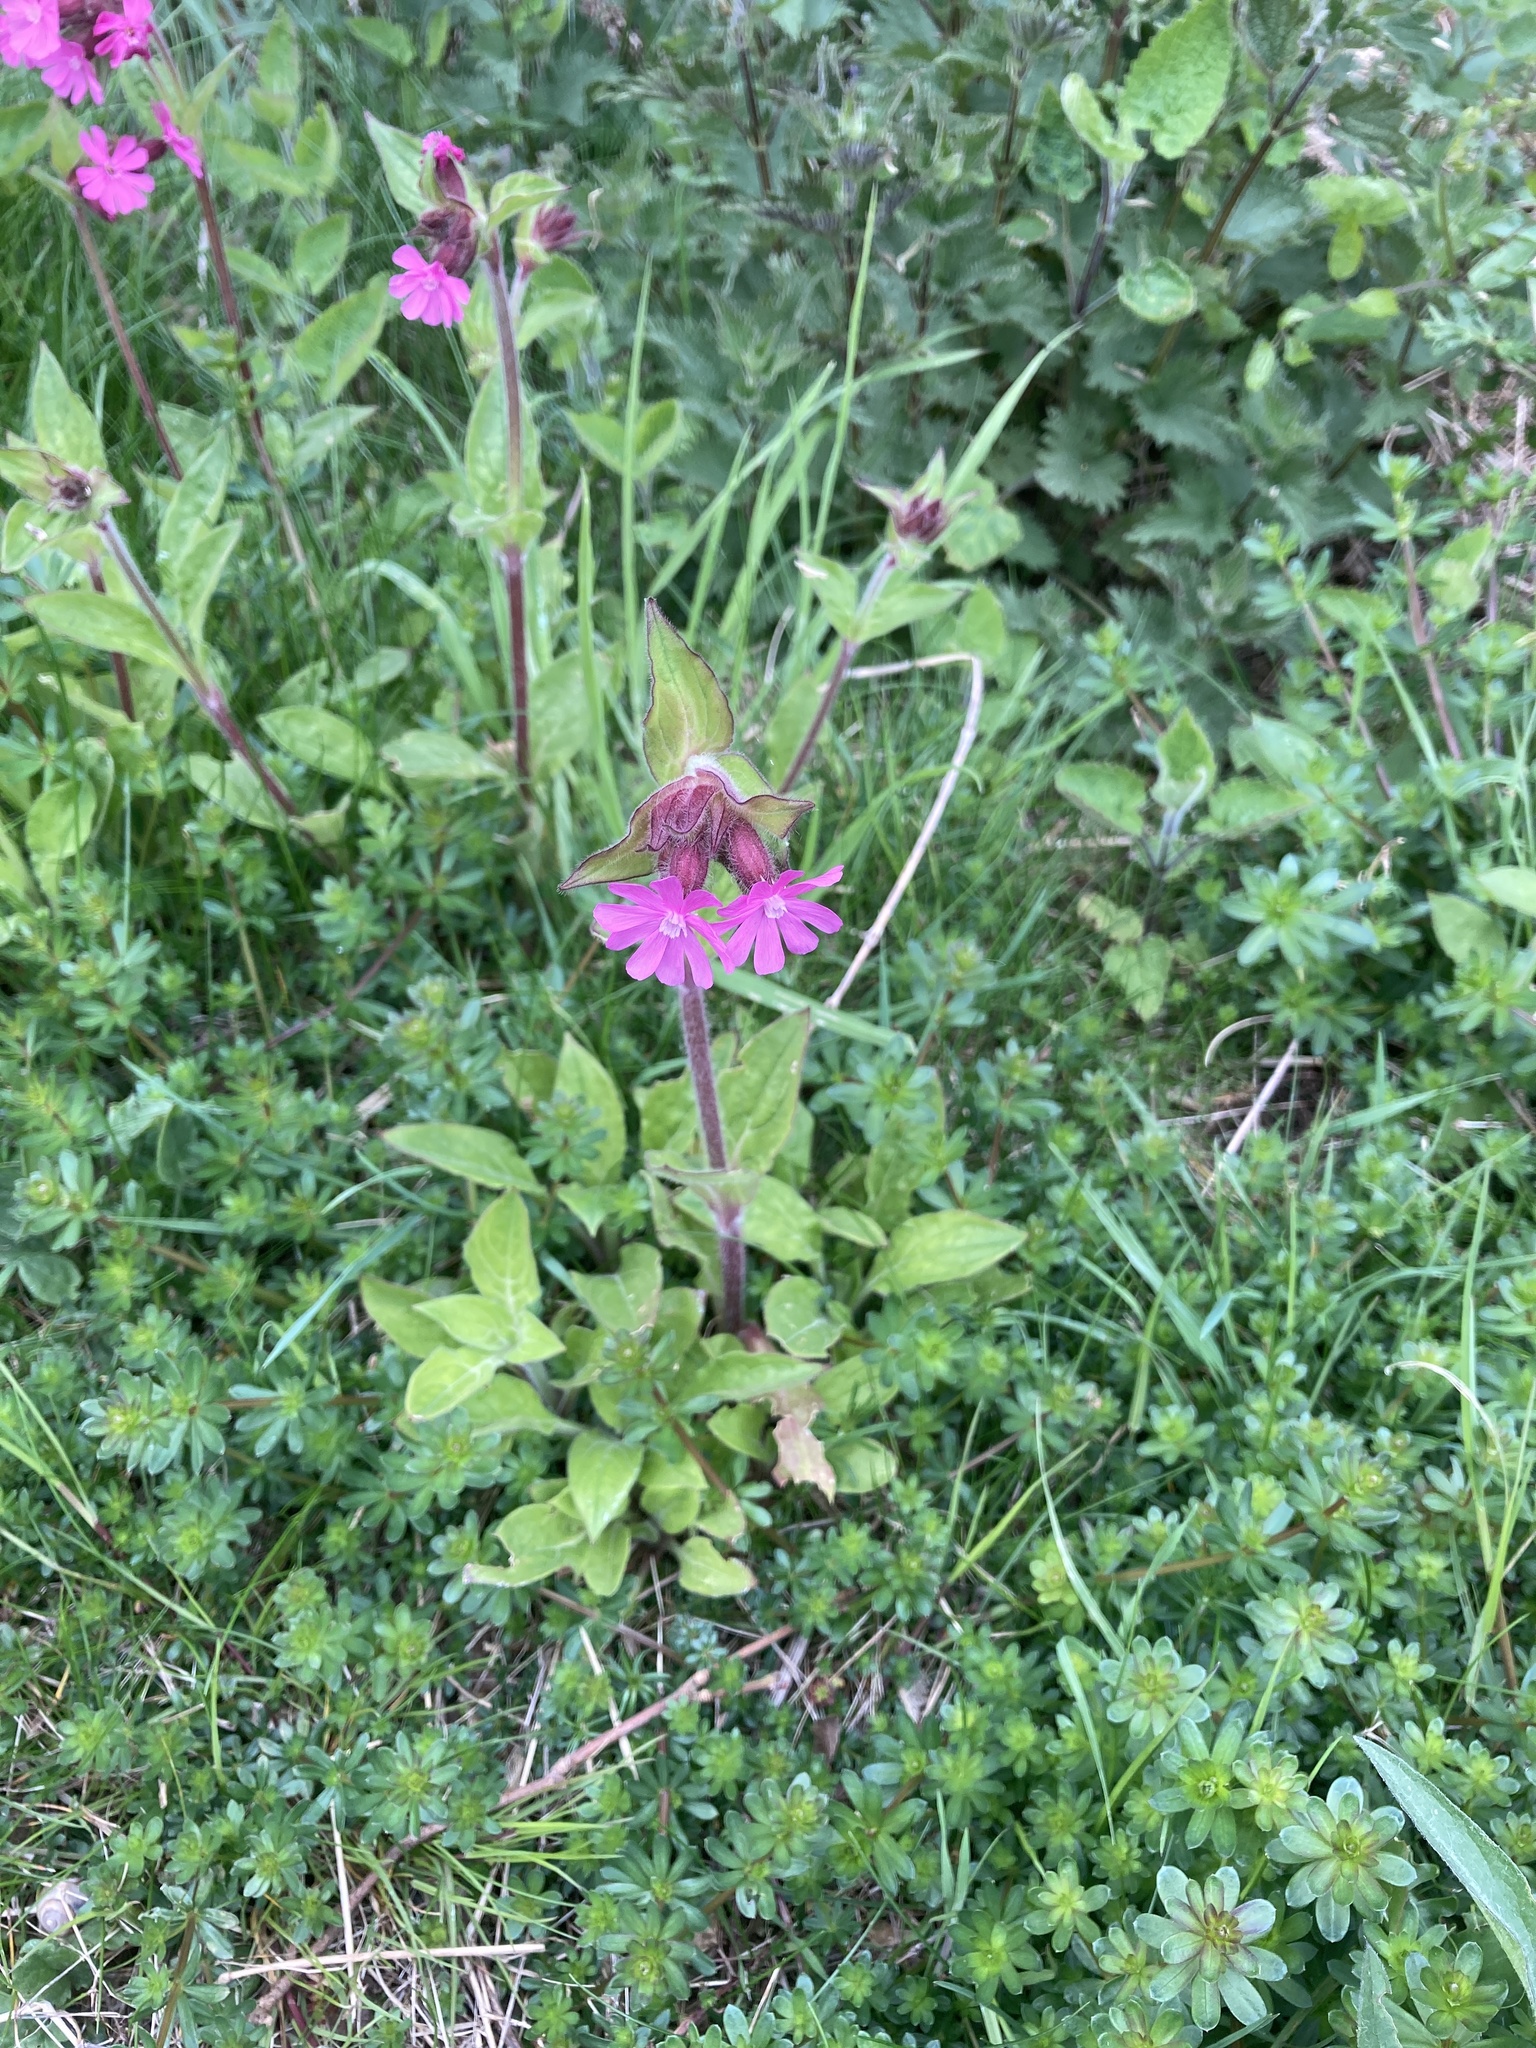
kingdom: Plantae
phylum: Tracheophyta
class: Magnoliopsida
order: Caryophyllales
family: Caryophyllaceae
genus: Silene
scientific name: Silene dioica
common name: Red campion
